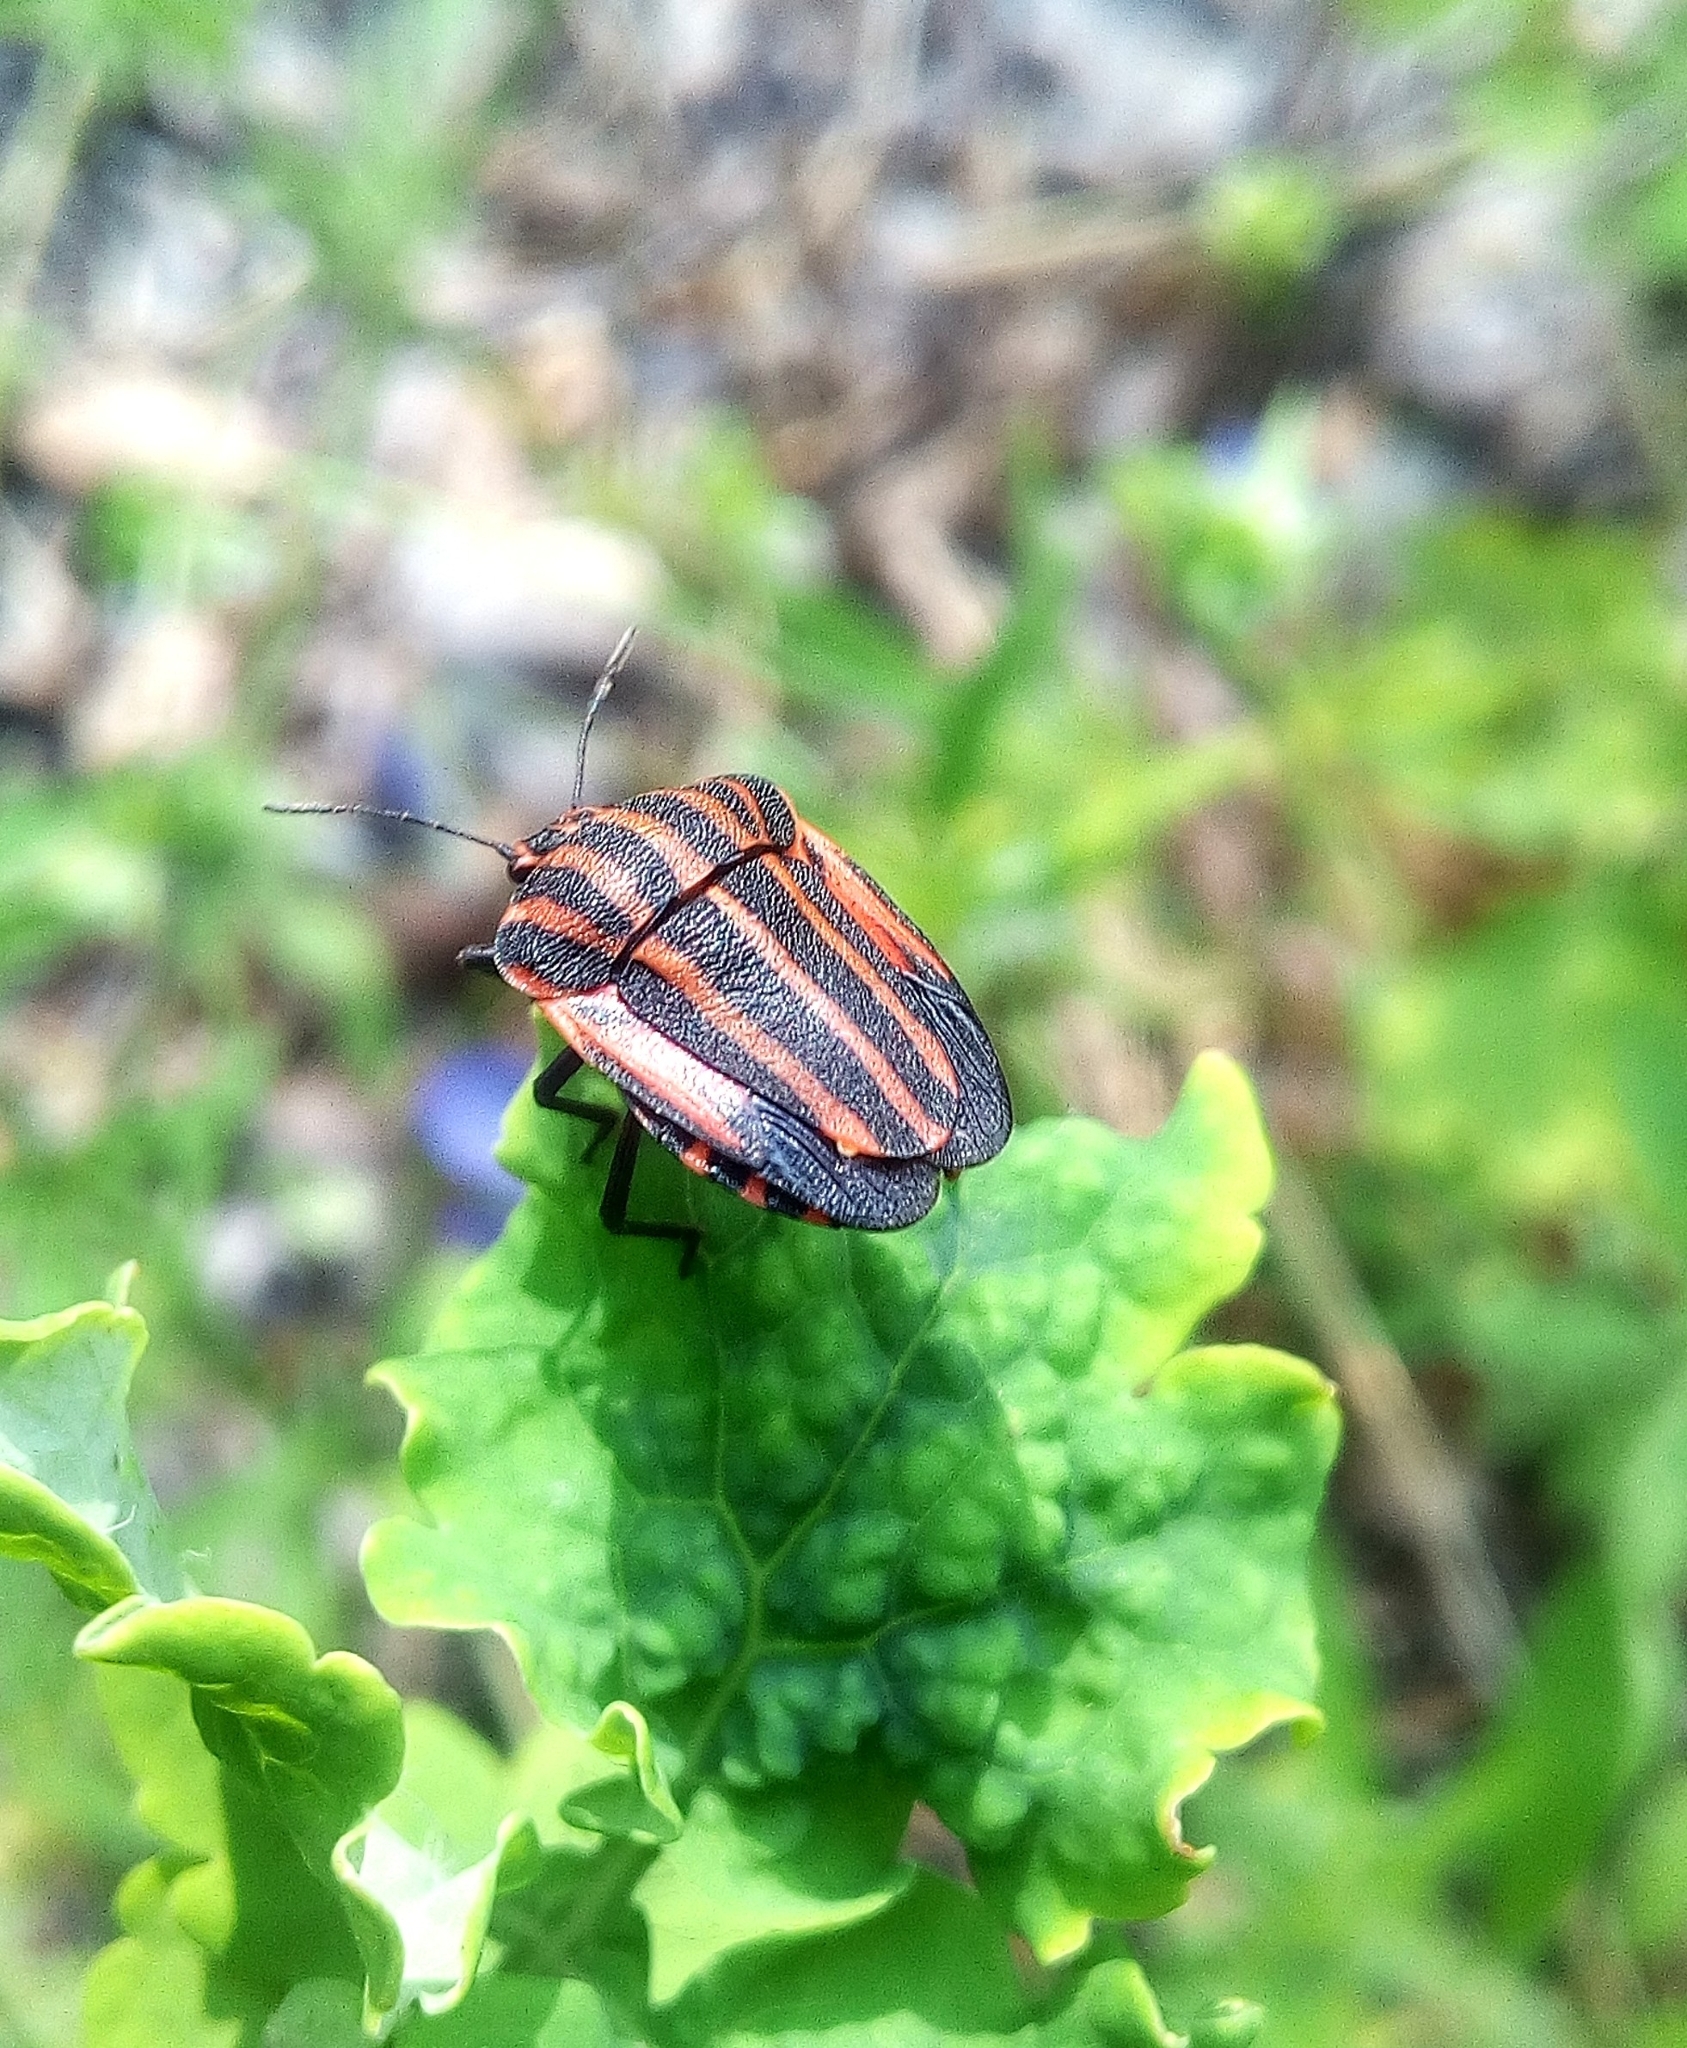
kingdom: Animalia
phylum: Arthropoda
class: Insecta
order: Hemiptera
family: Pentatomidae
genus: Graphosoma
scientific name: Graphosoma italicum
